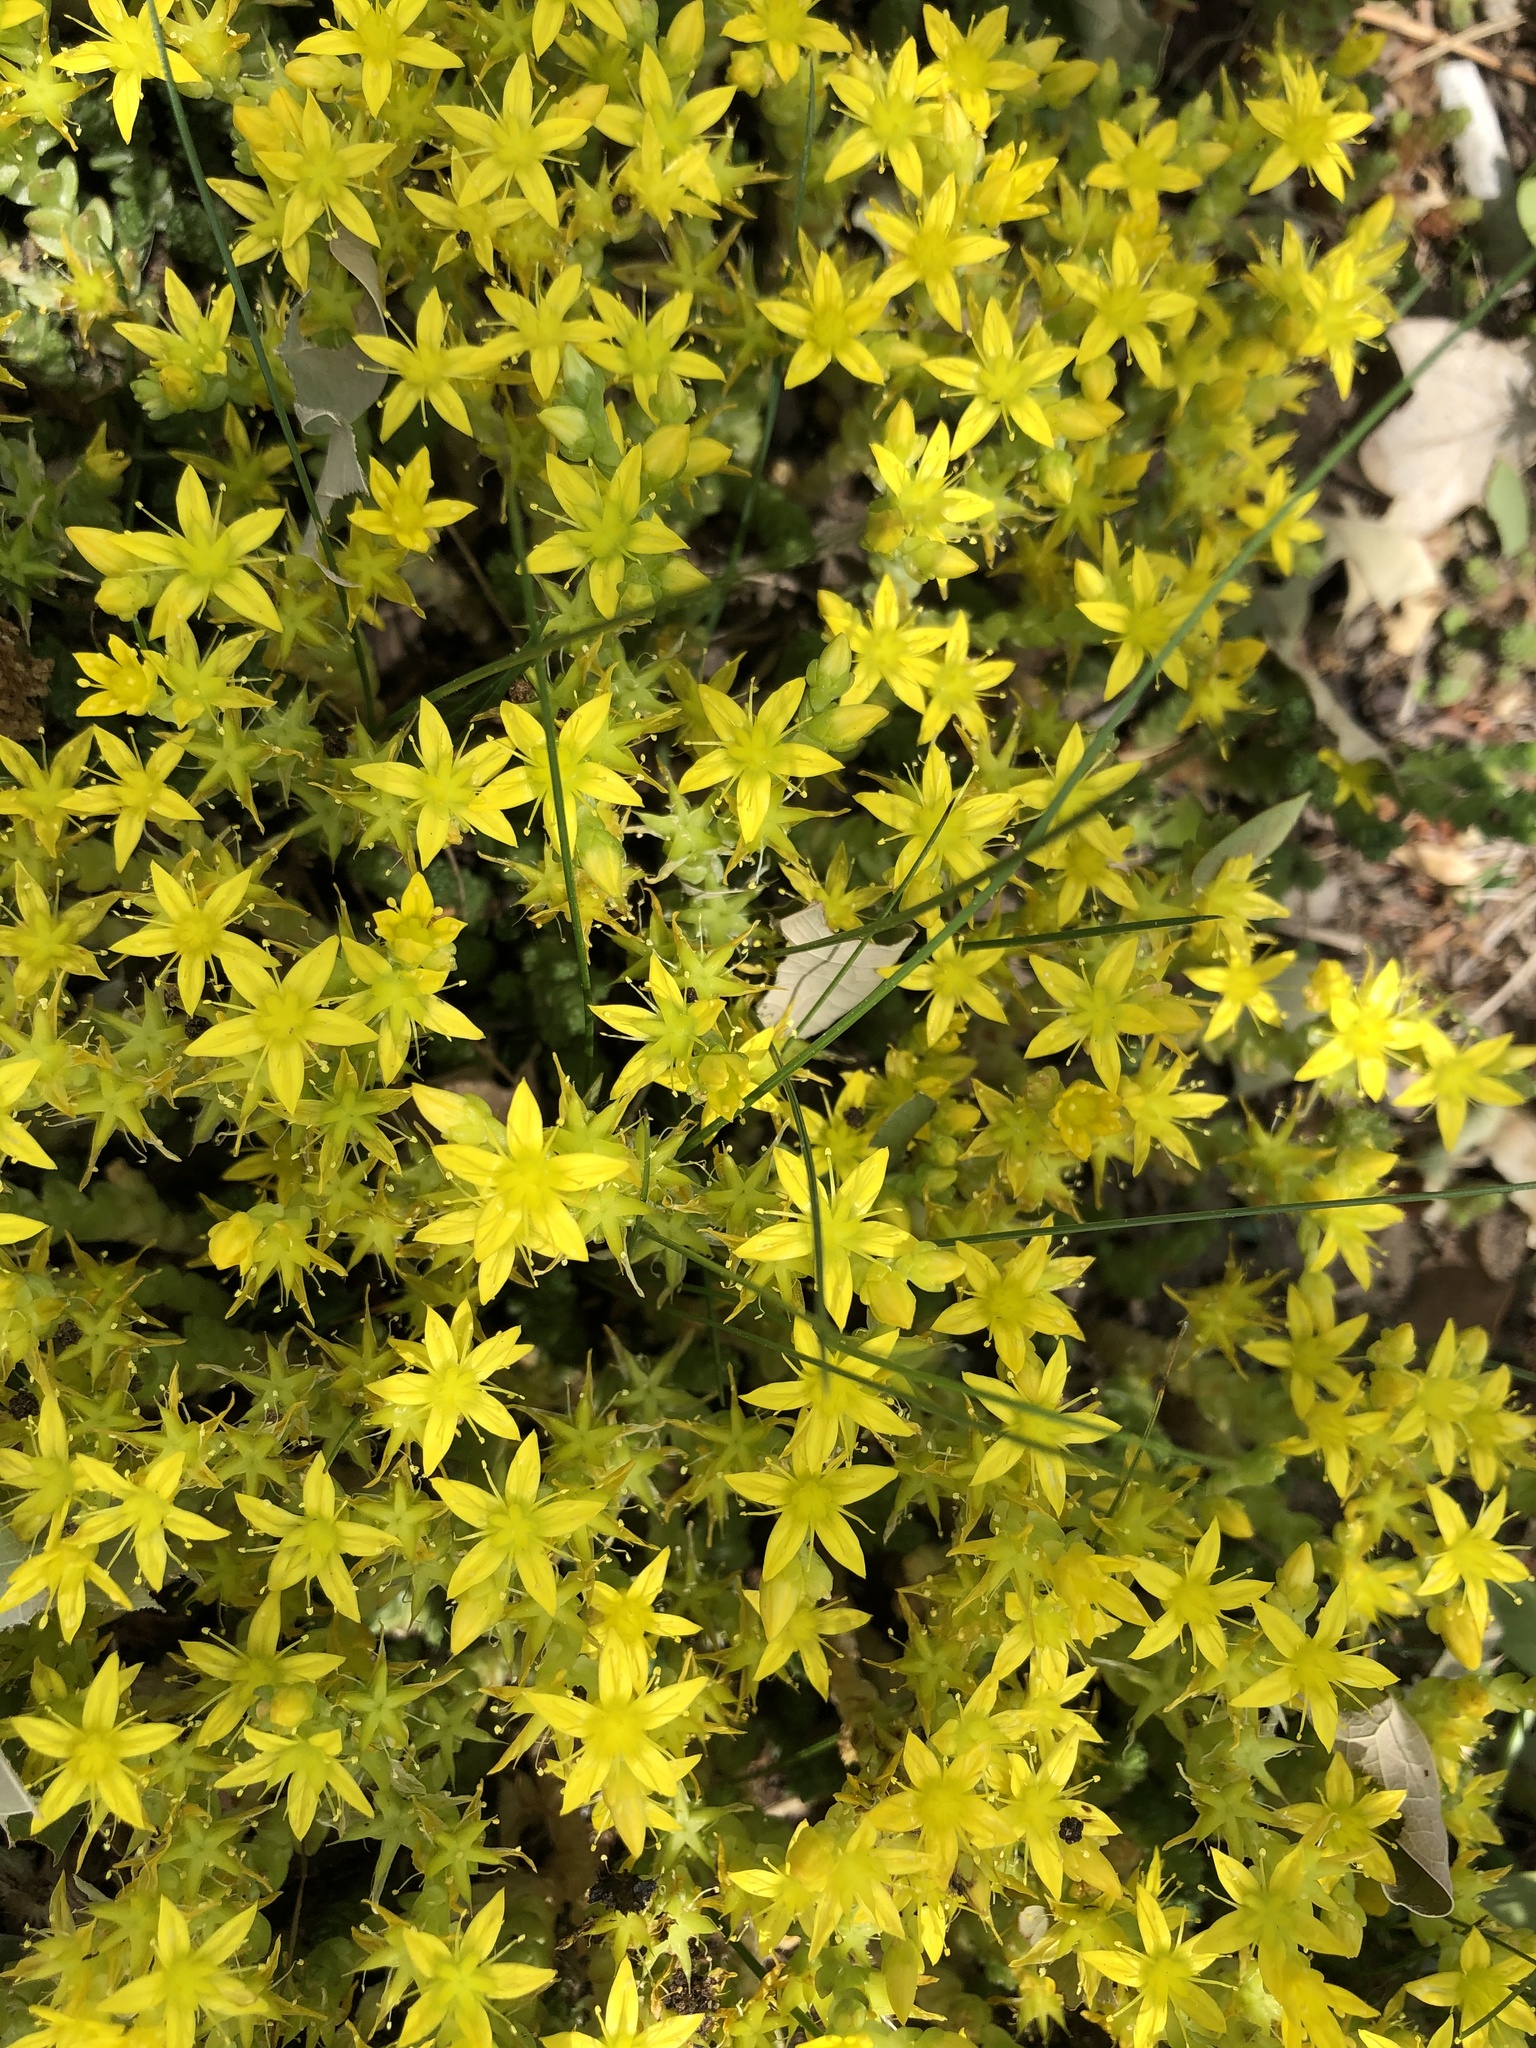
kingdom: Plantae
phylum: Tracheophyta
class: Magnoliopsida
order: Saxifragales
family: Crassulaceae
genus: Sedum
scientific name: Sedum acre
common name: Biting stonecrop
